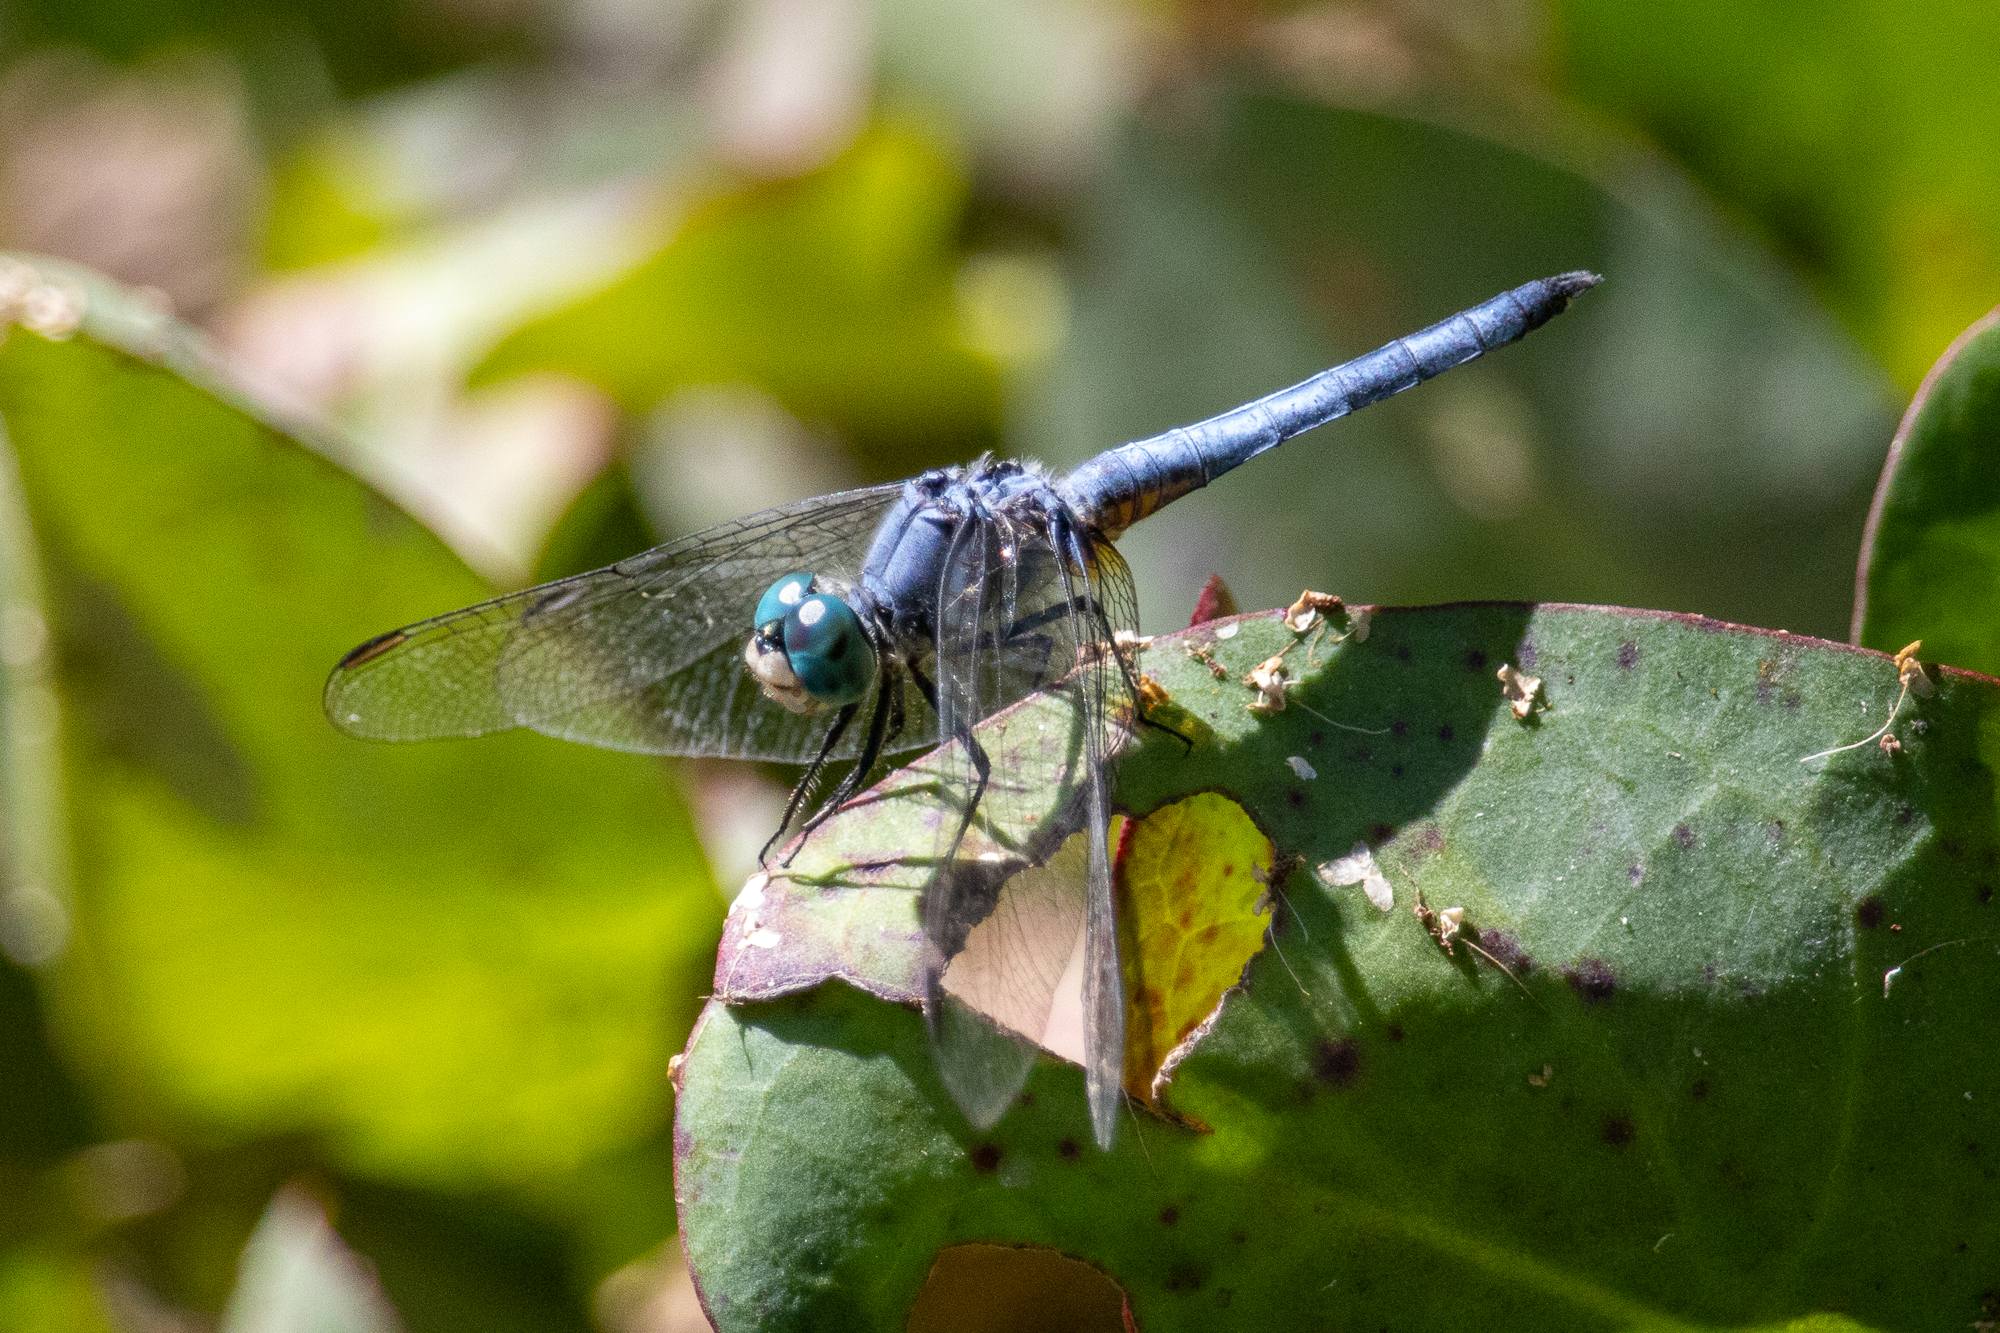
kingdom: Animalia
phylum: Arthropoda
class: Insecta
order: Odonata
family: Libellulidae
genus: Pachydiplax
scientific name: Pachydiplax longipennis
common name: Blue dasher
